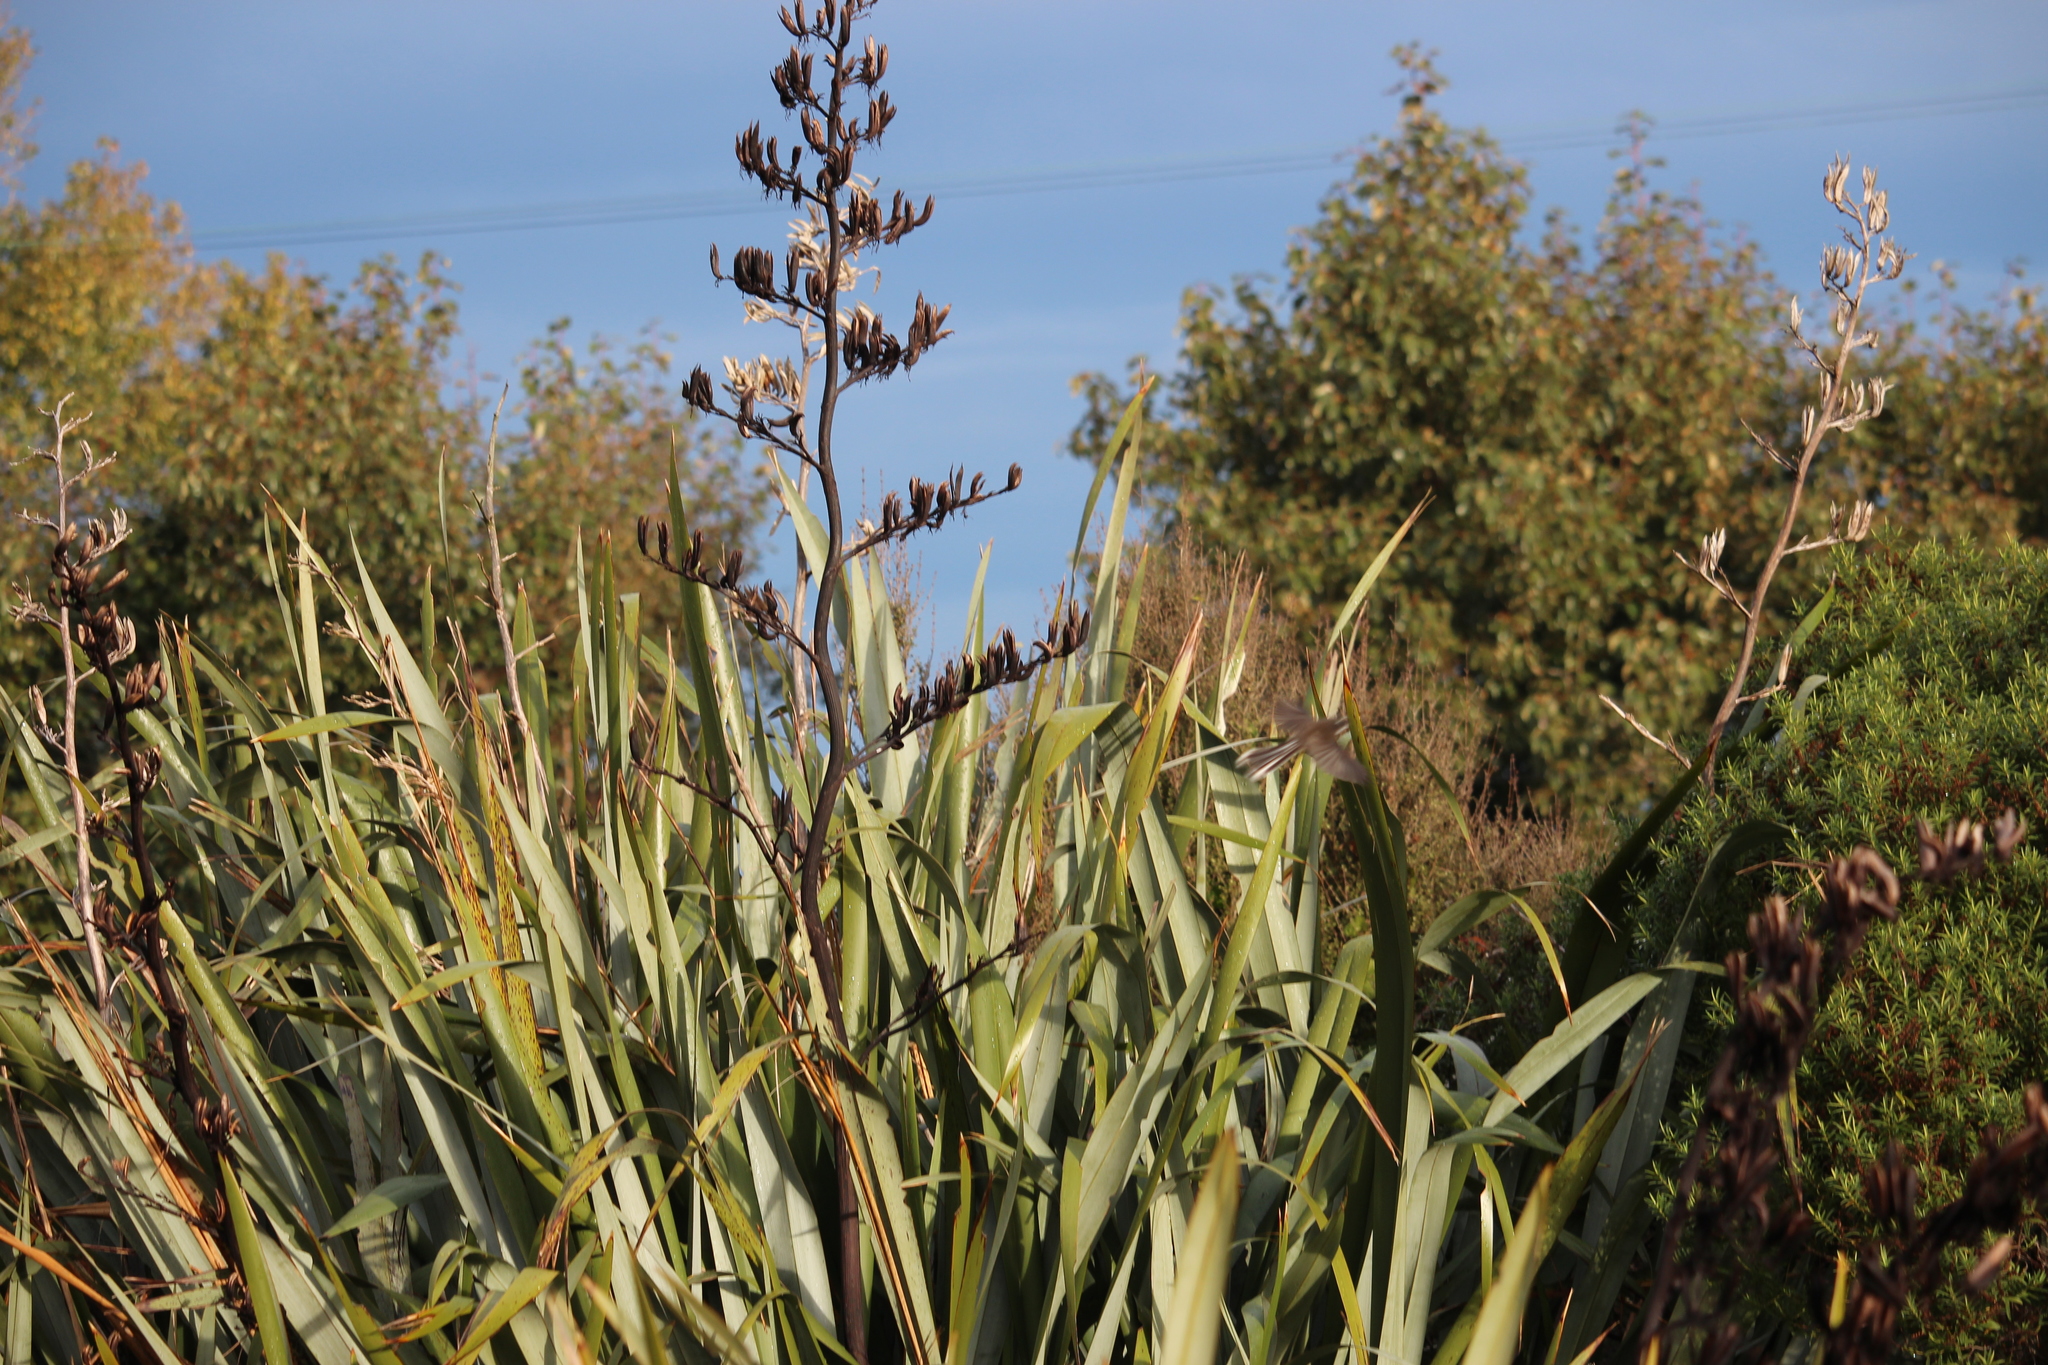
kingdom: Plantae
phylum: Tracheophyta
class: Liliopsida
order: Asparagales
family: Asphodelaceae
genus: Phormium
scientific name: Phormium tenax
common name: New zealand flax
